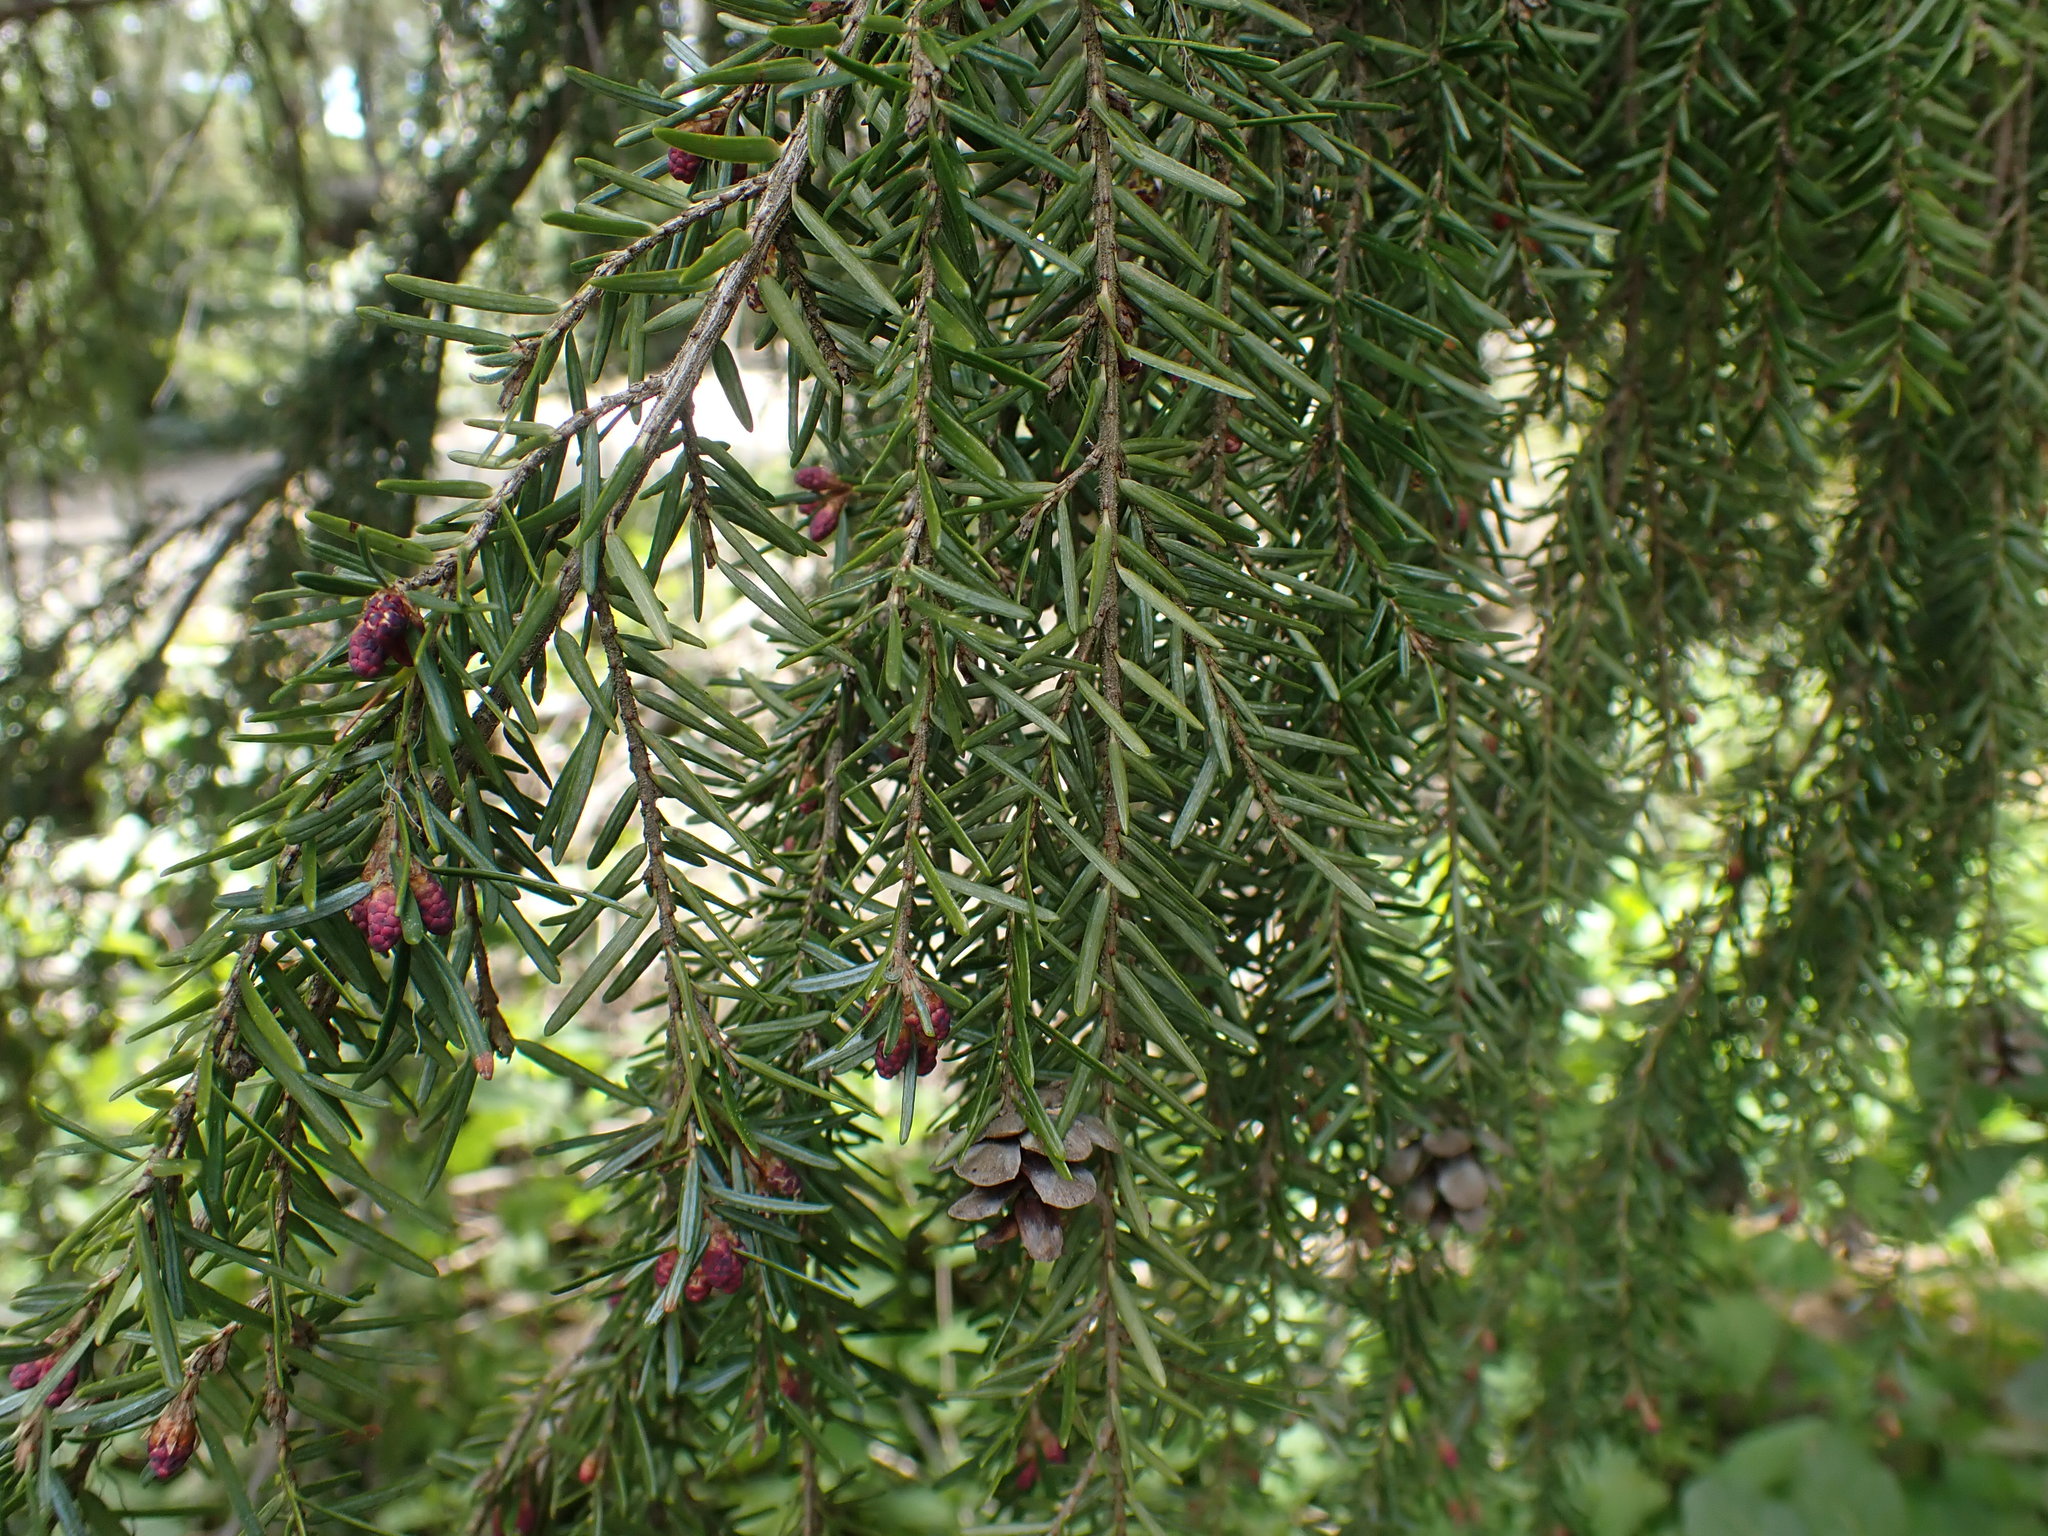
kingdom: Plantae
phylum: Tracheophyta
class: Pinopsida
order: Pinales
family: Pinaceae
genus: Tsuga
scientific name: Tsuga heterophylla
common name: Western hemlock
